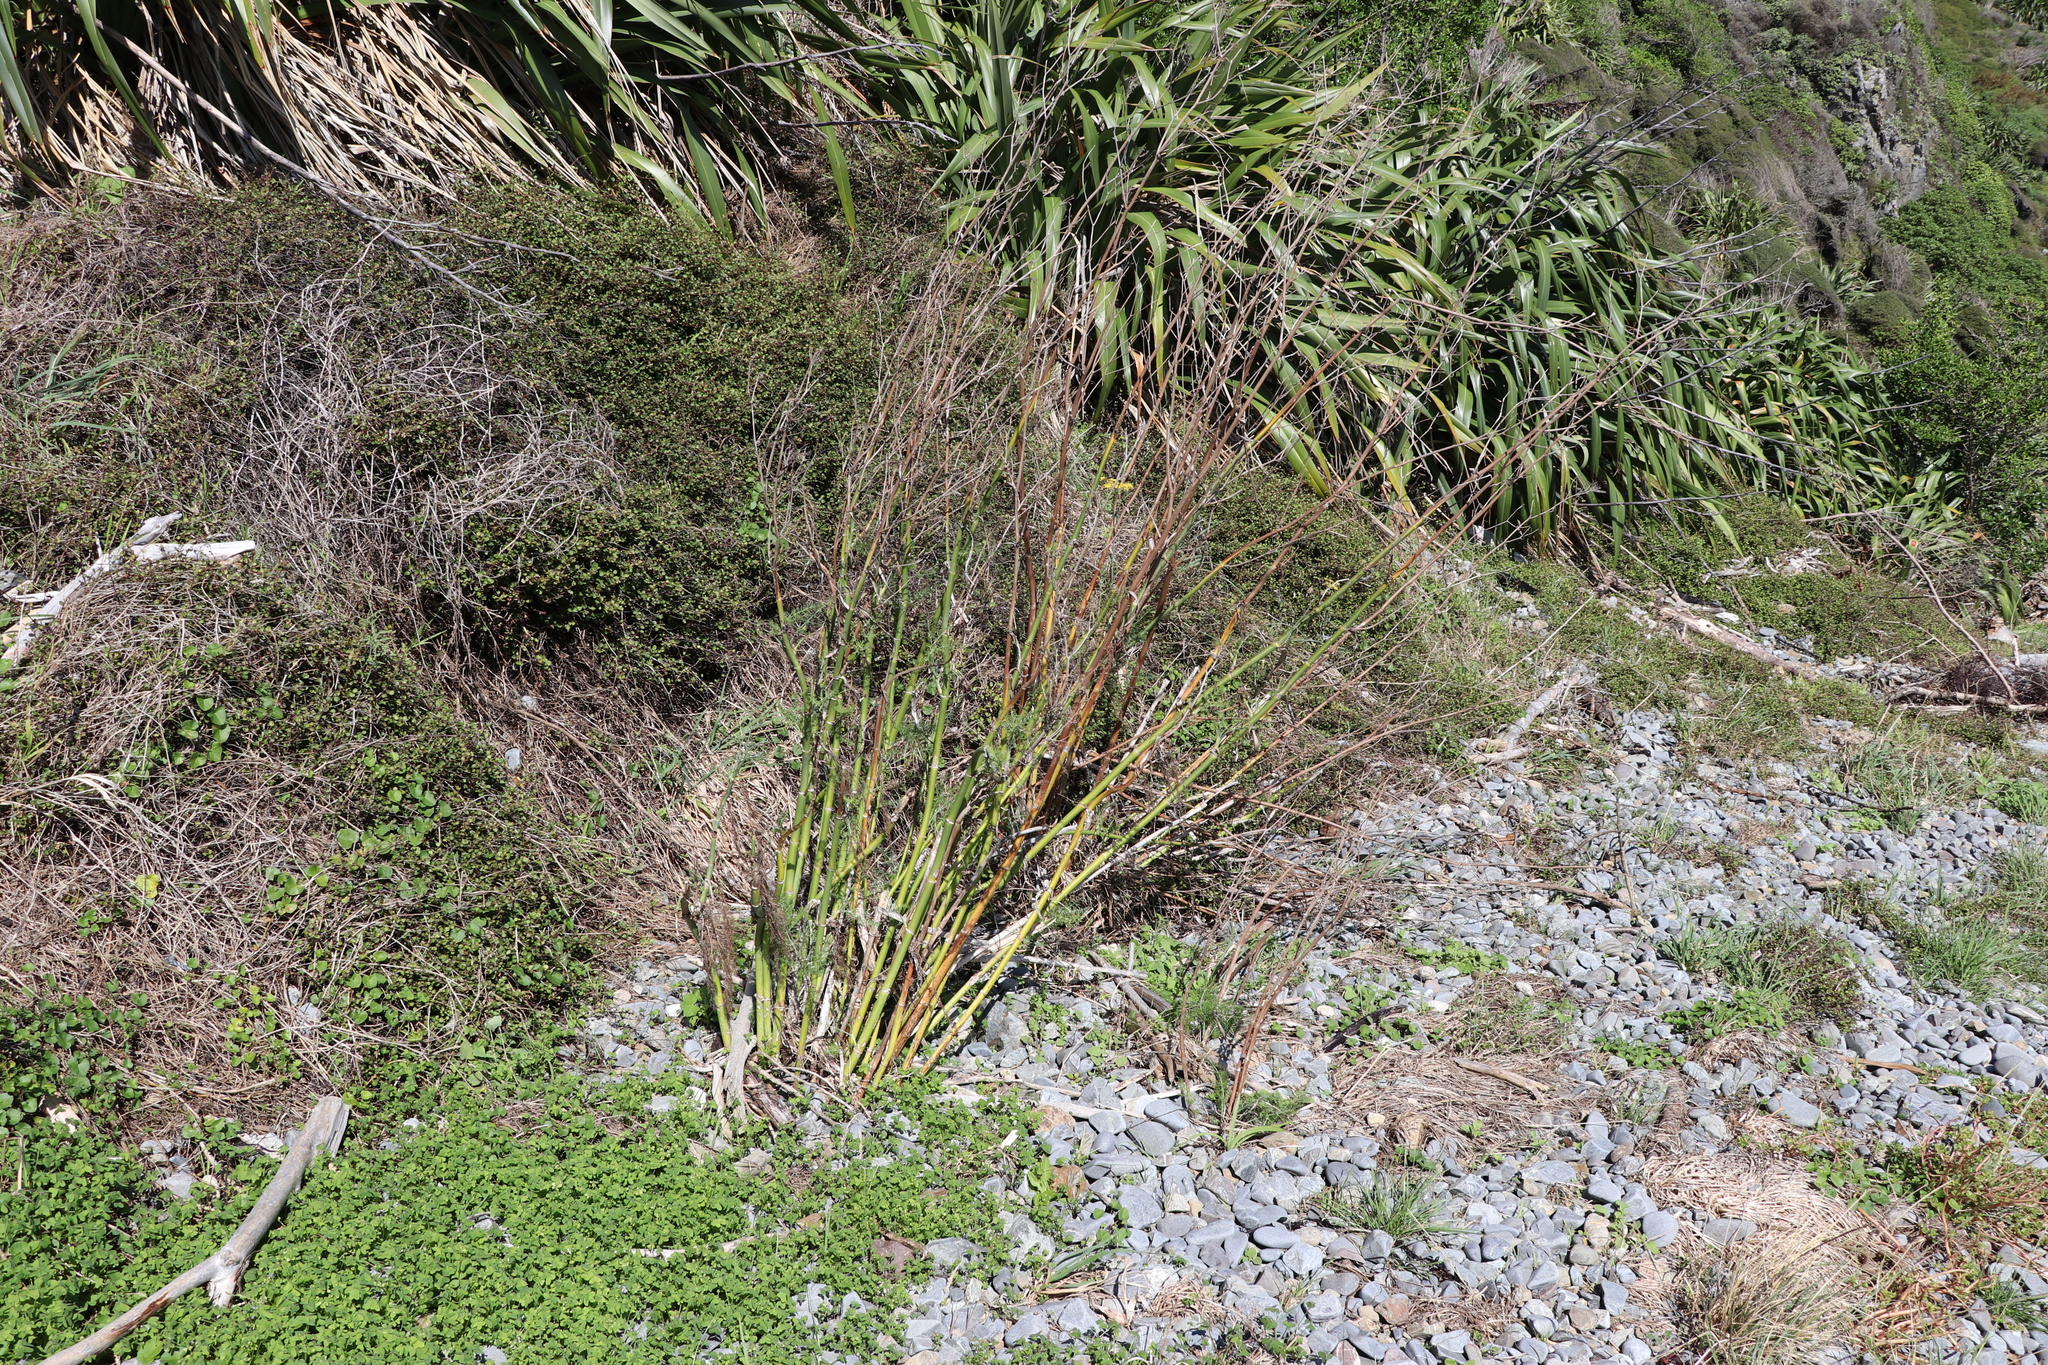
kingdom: Plantae
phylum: Tracheophyta
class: Magnoliopsida
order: Apiales
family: Apiaceae
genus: Foeniculum
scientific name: Foeniculum vulgare
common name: Fennel
